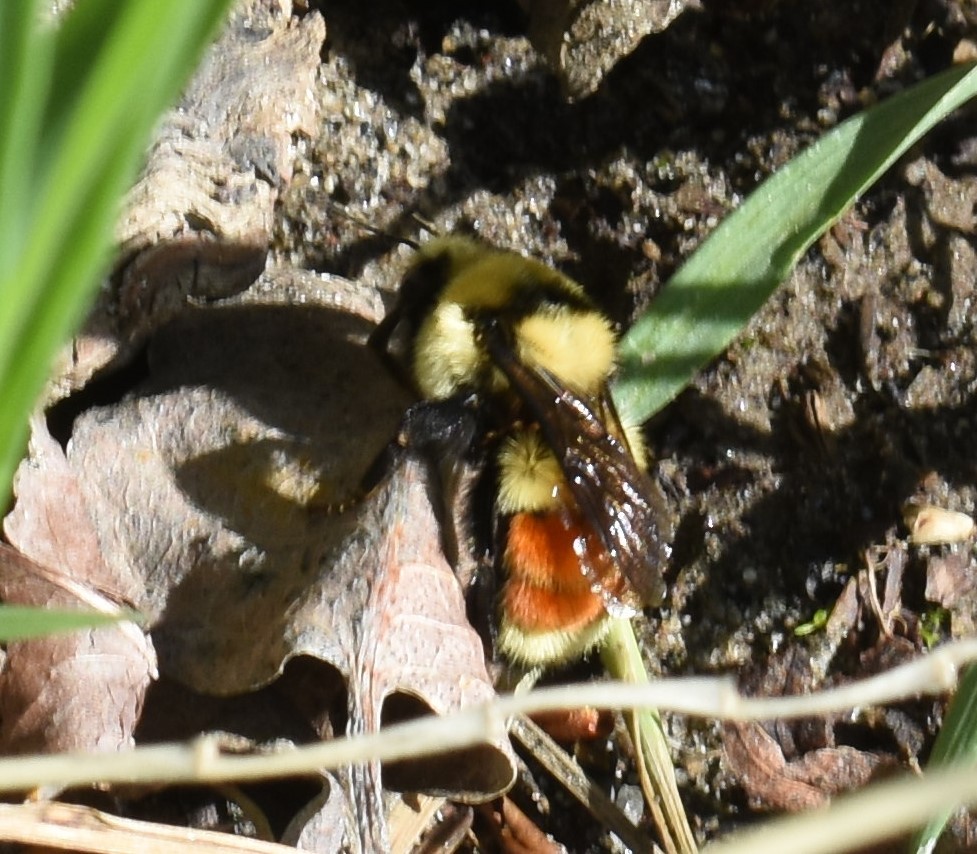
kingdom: Animalia
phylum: Arthropoda
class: Insecta
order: Hymenoptera
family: Apidae
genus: Bombus
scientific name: Bombus huntii
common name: Hunt bumble bee
